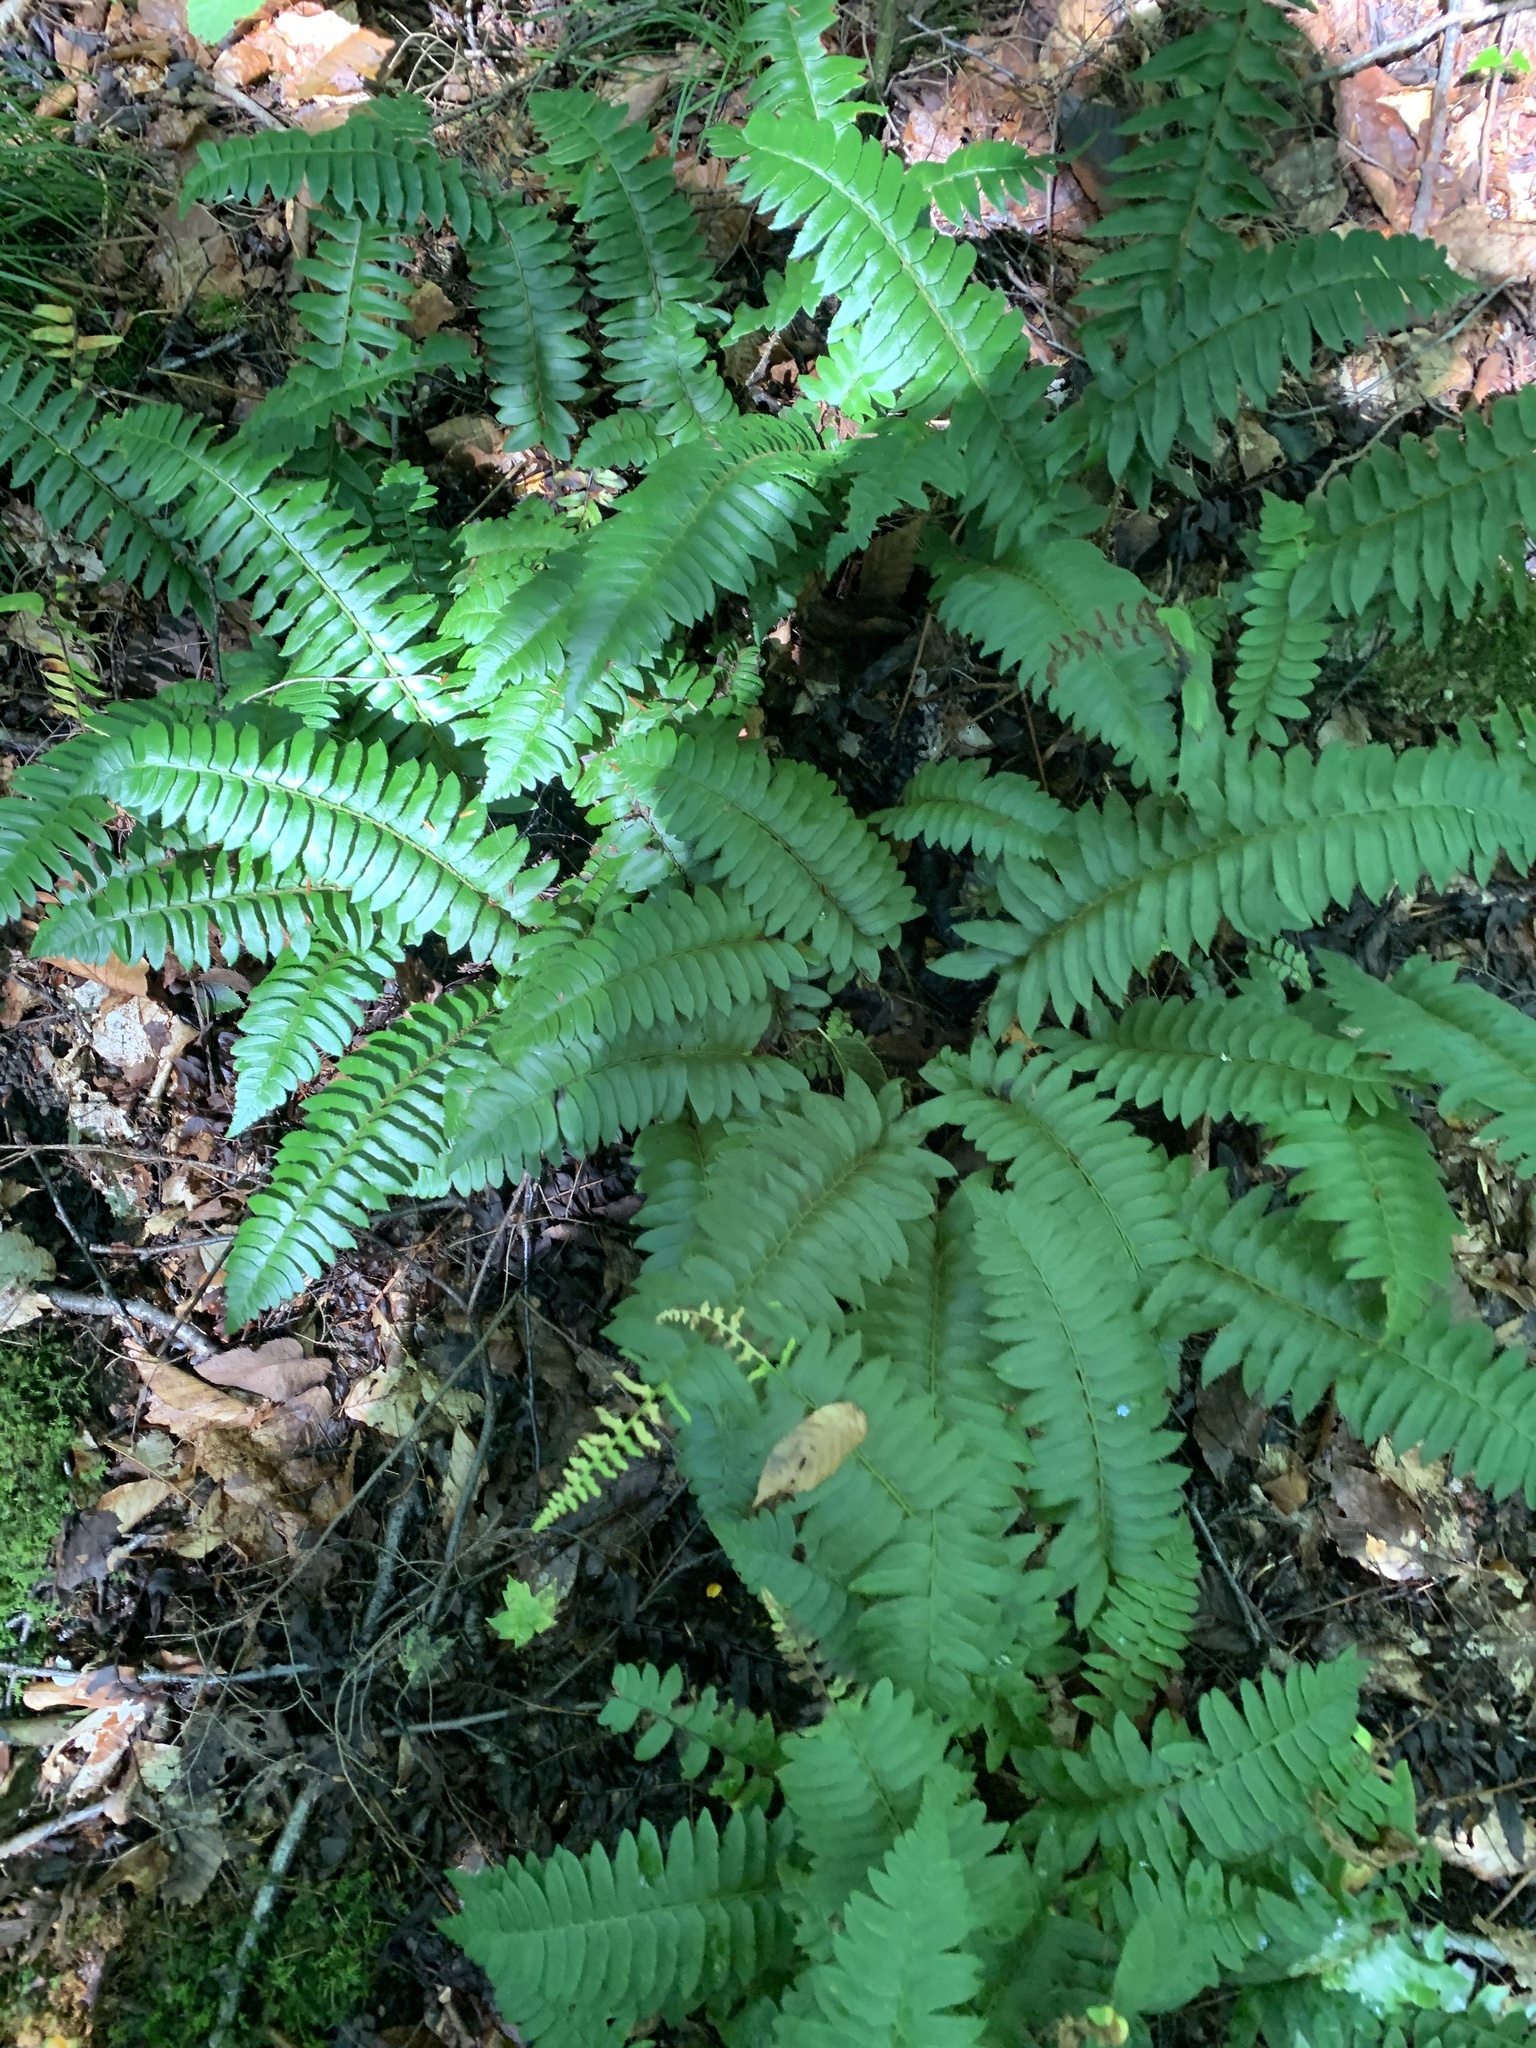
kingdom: Plantae
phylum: Tracheophyta
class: Polypodiopsida
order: Polypodiales
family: Dryopteridaceae
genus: Polystichum
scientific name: Polystichum acrostichoides
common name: Christmas fern
